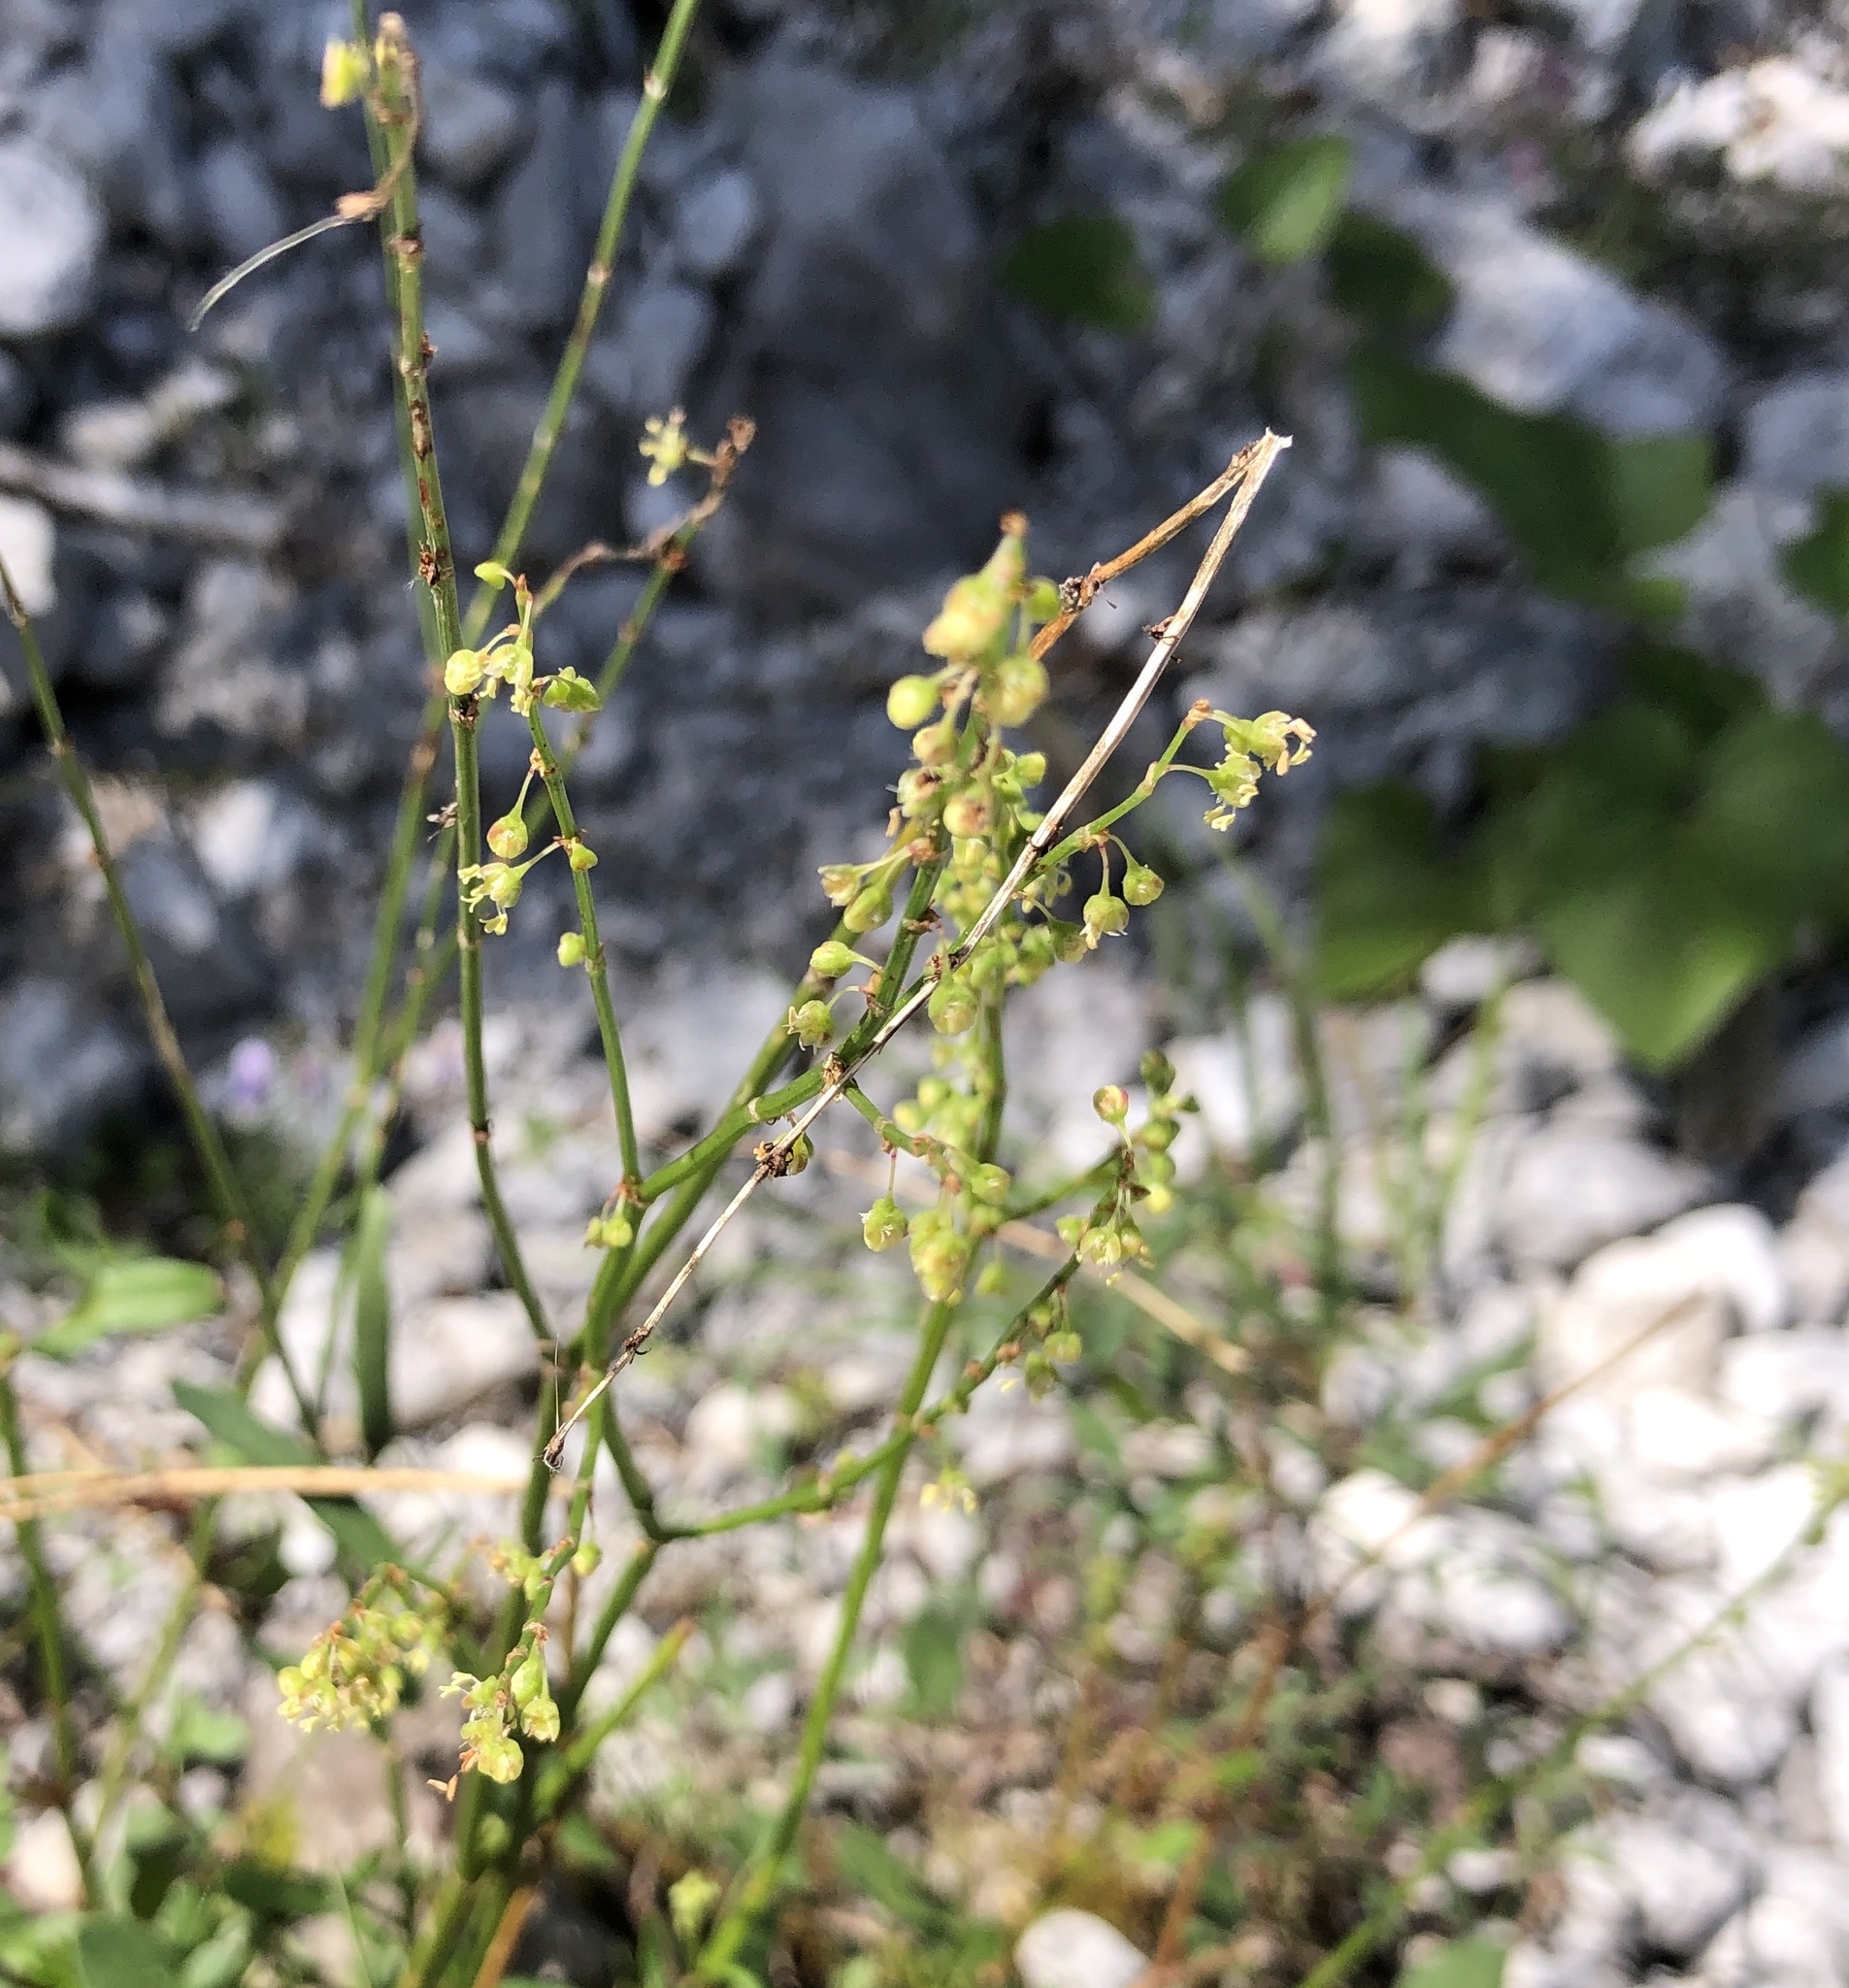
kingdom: Plantae
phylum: Tracheophyta
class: Magnoliopsida
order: Caryophyllales
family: Polygonaceae
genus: Rumex
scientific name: Rumex scutatus
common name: French sorrel
